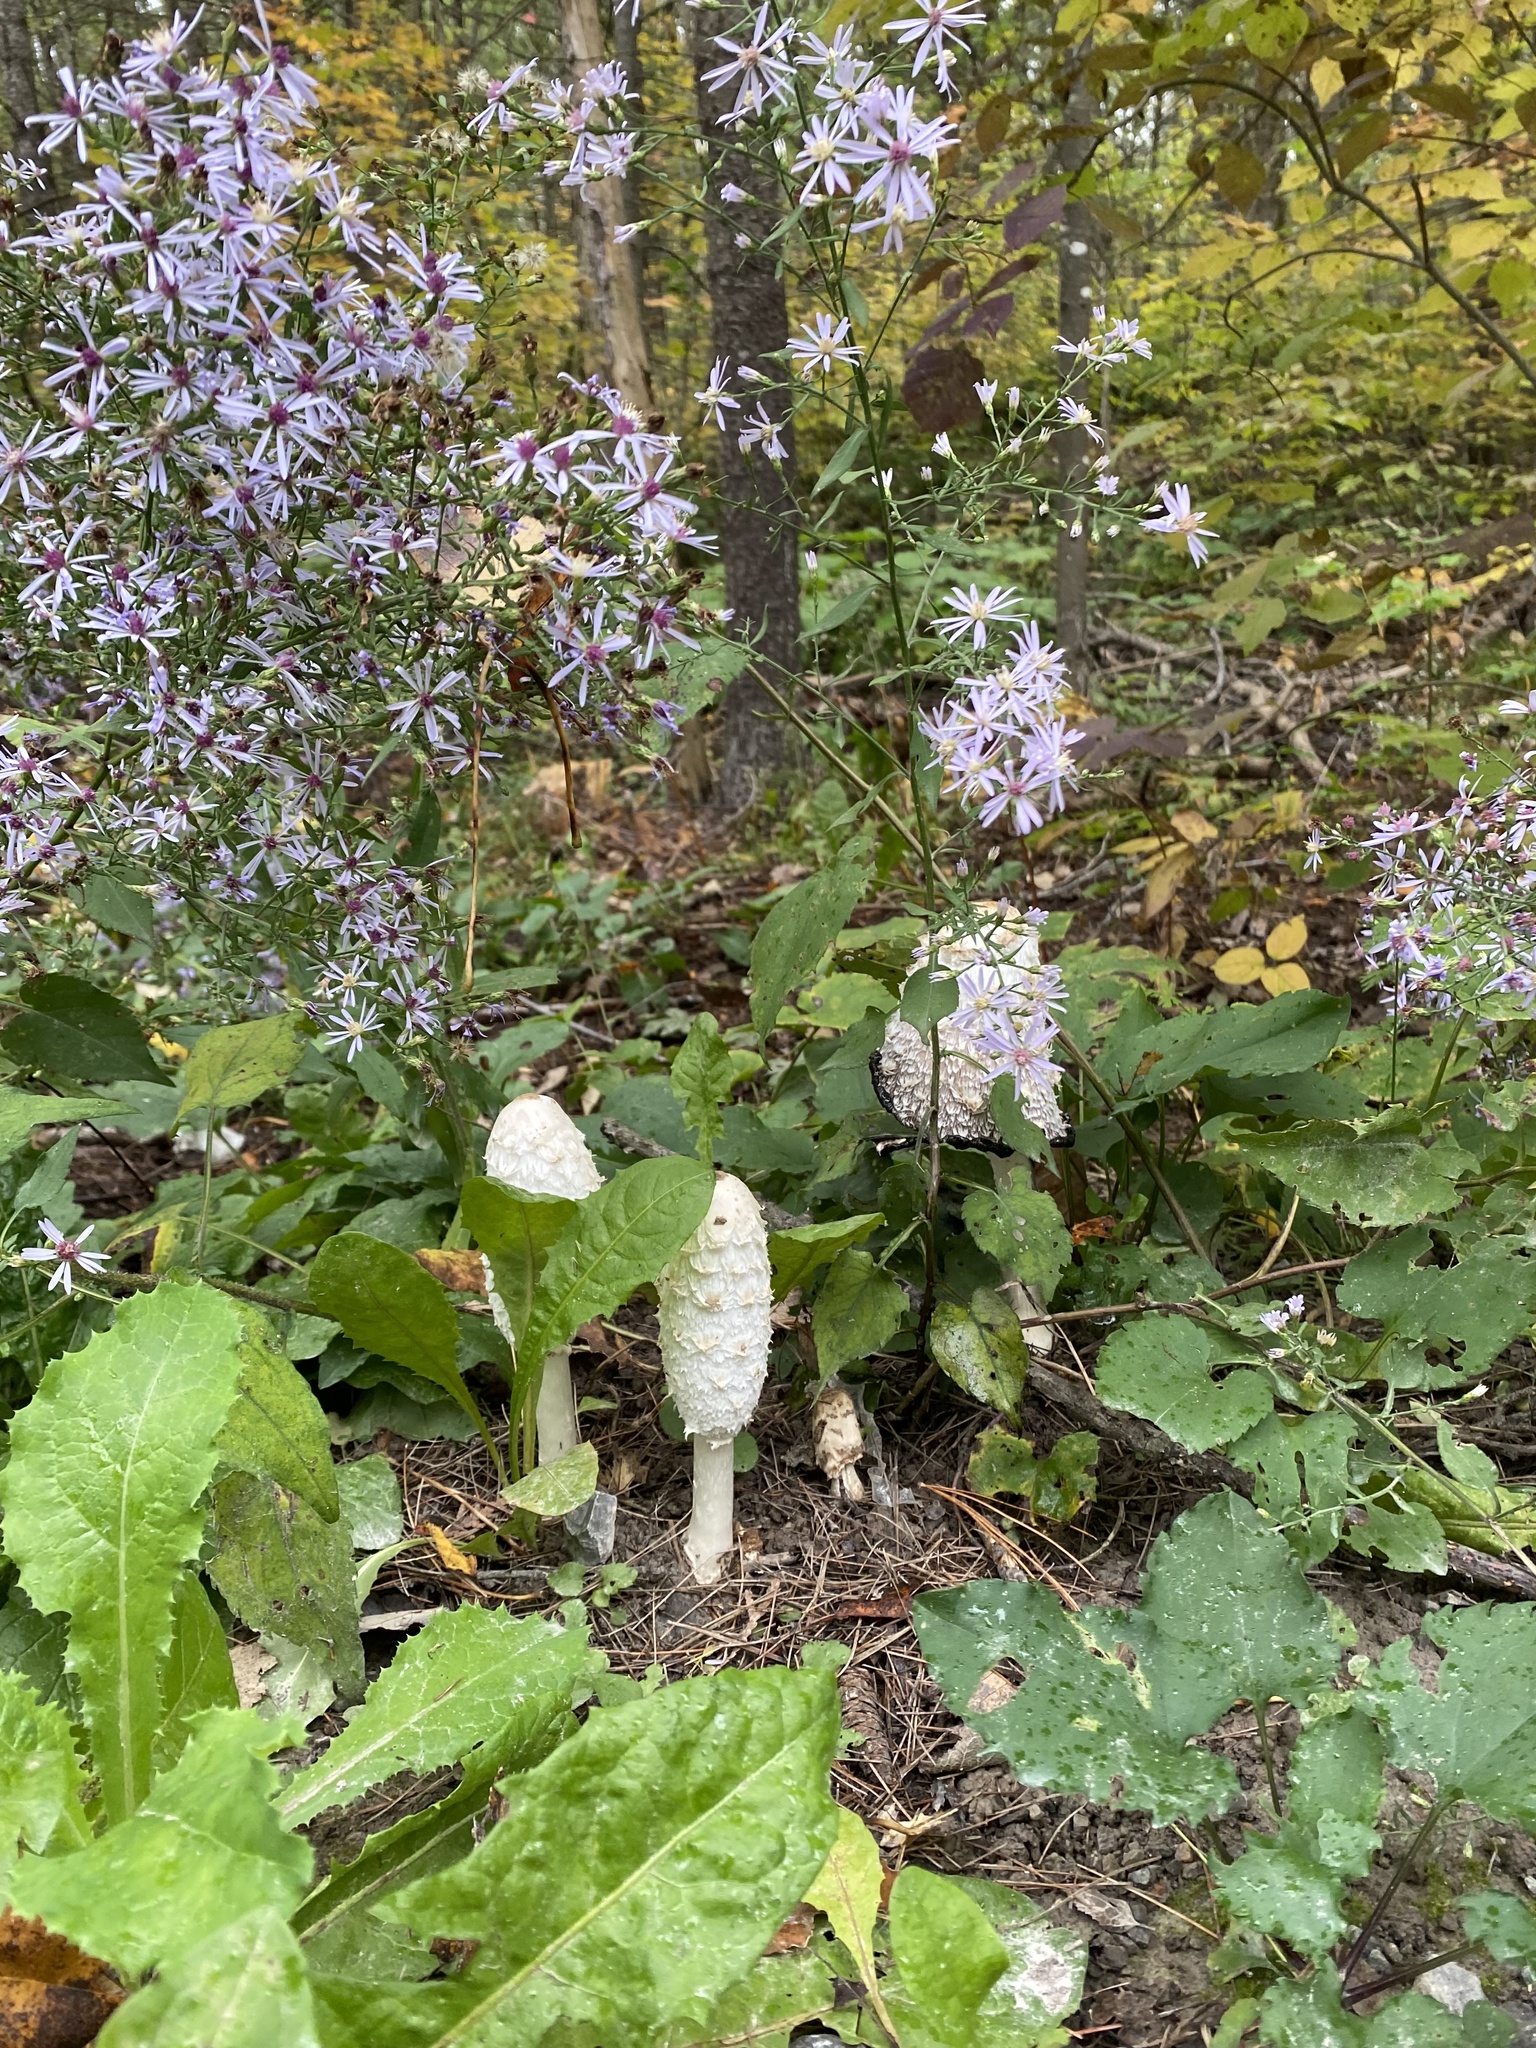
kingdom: Fungi
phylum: Basidiomycota
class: Agaricomycetes
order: Agaricales
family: Agaricaceae
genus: Coprinus
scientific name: Coprinus comatus
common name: Lawyer's wig
